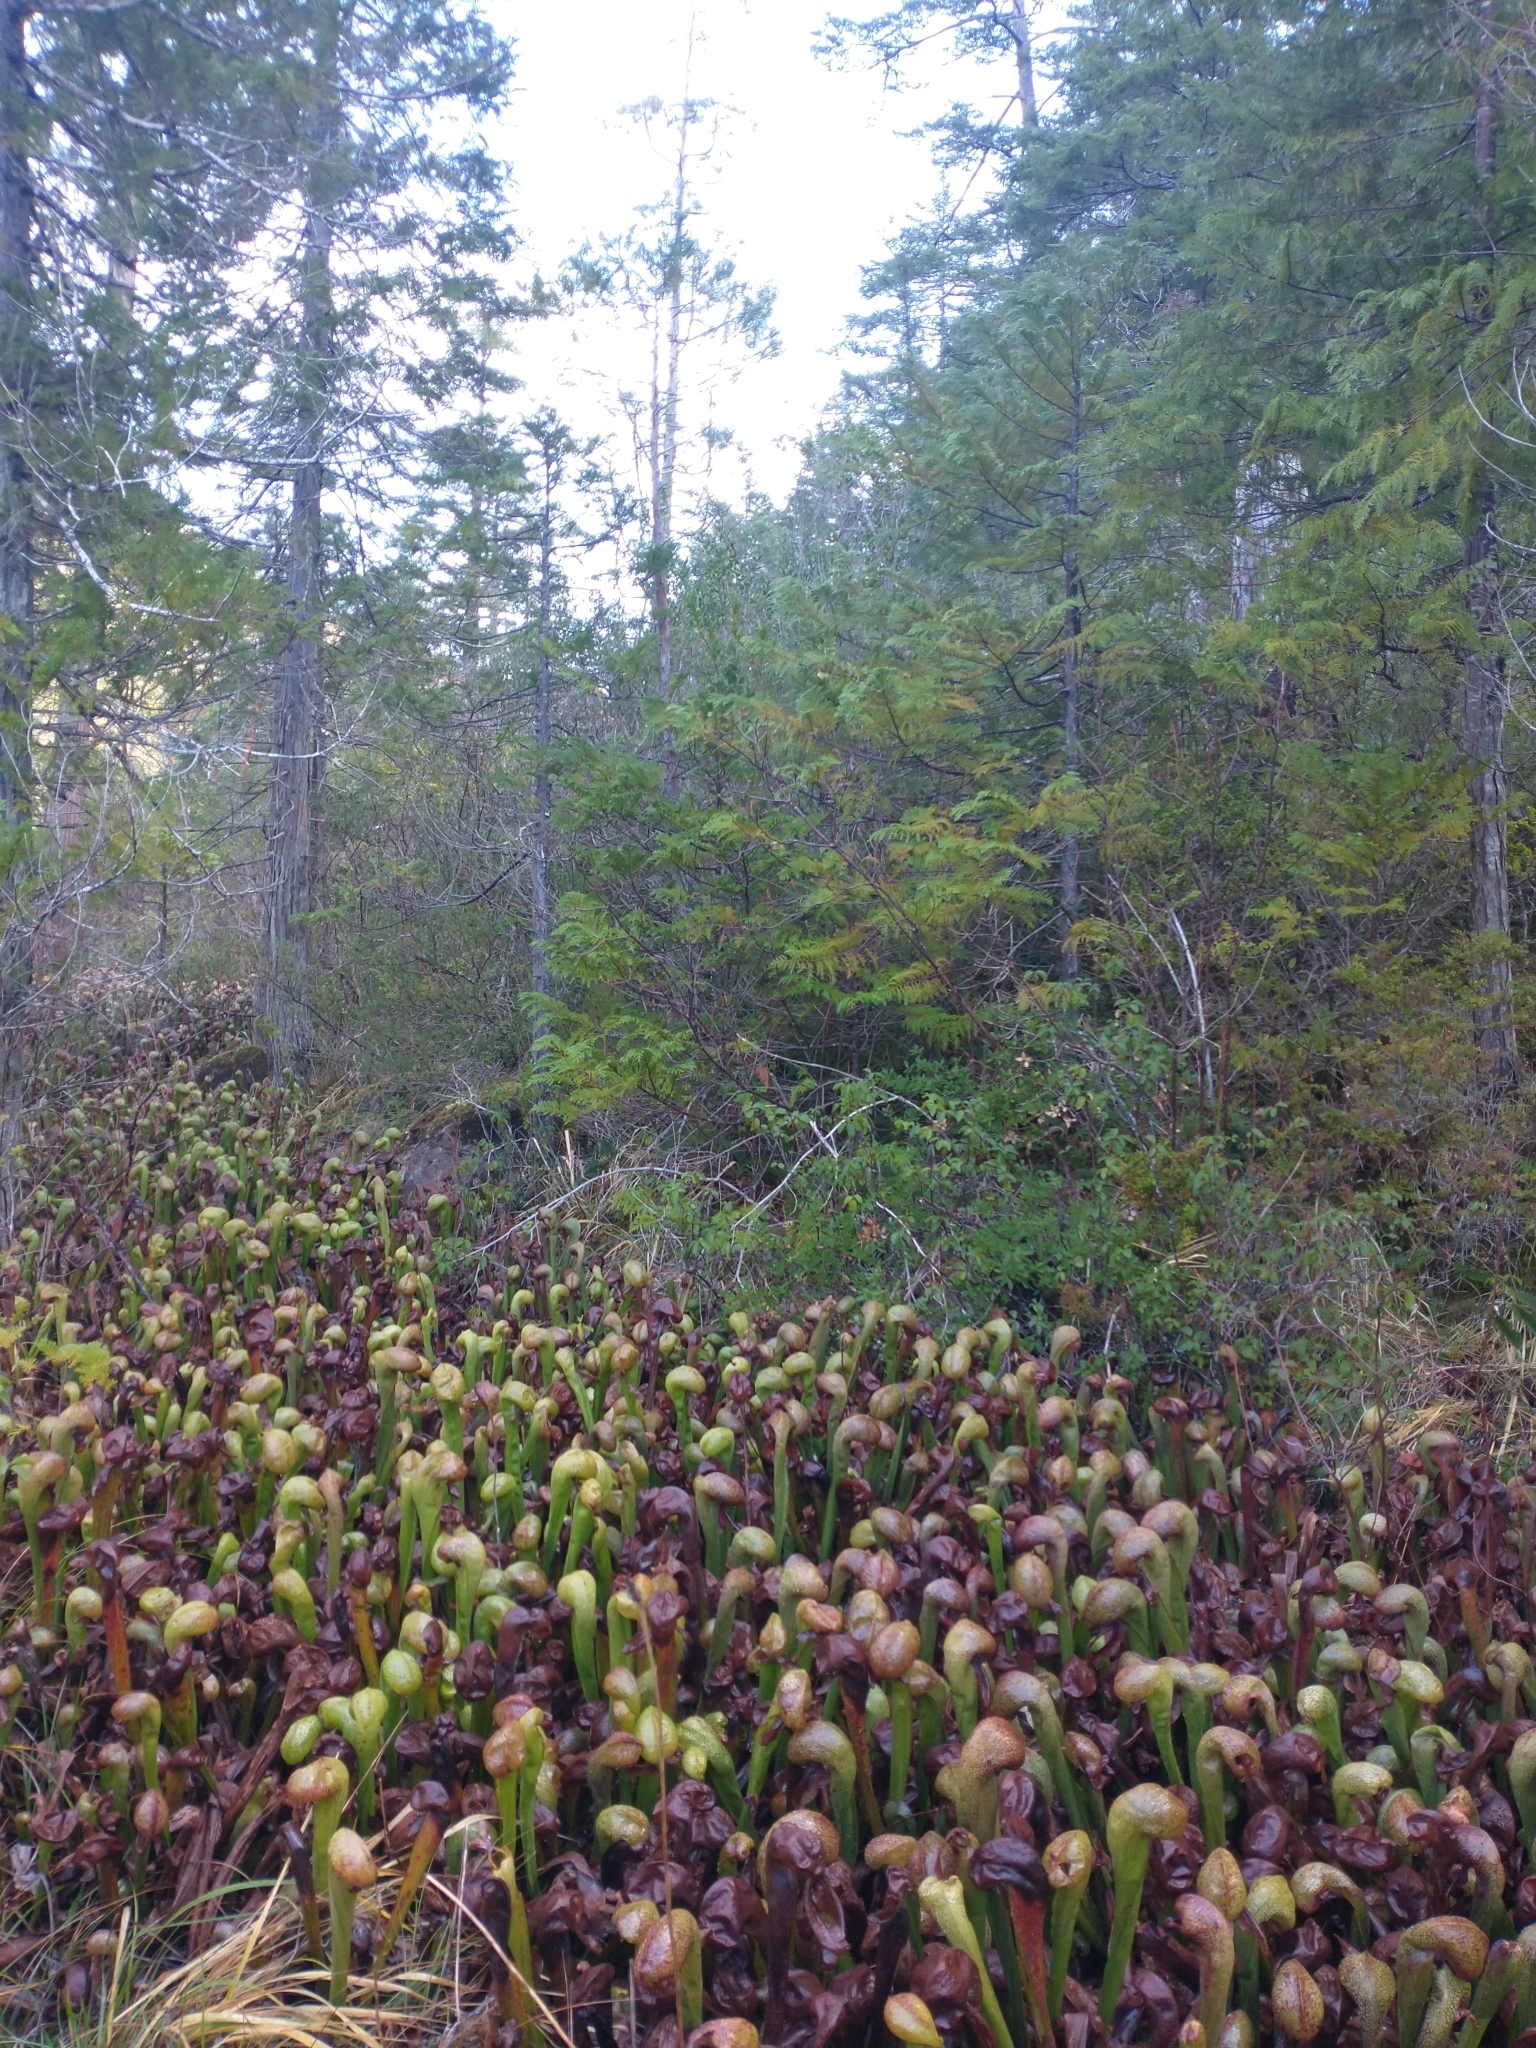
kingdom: Plantae
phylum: Tracheophyta
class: Pinopsida
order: Pinales
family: Cupressaceae
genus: Chamaecyparis
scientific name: Chamaecyparis lawsoniana
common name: Lawson's cypress
